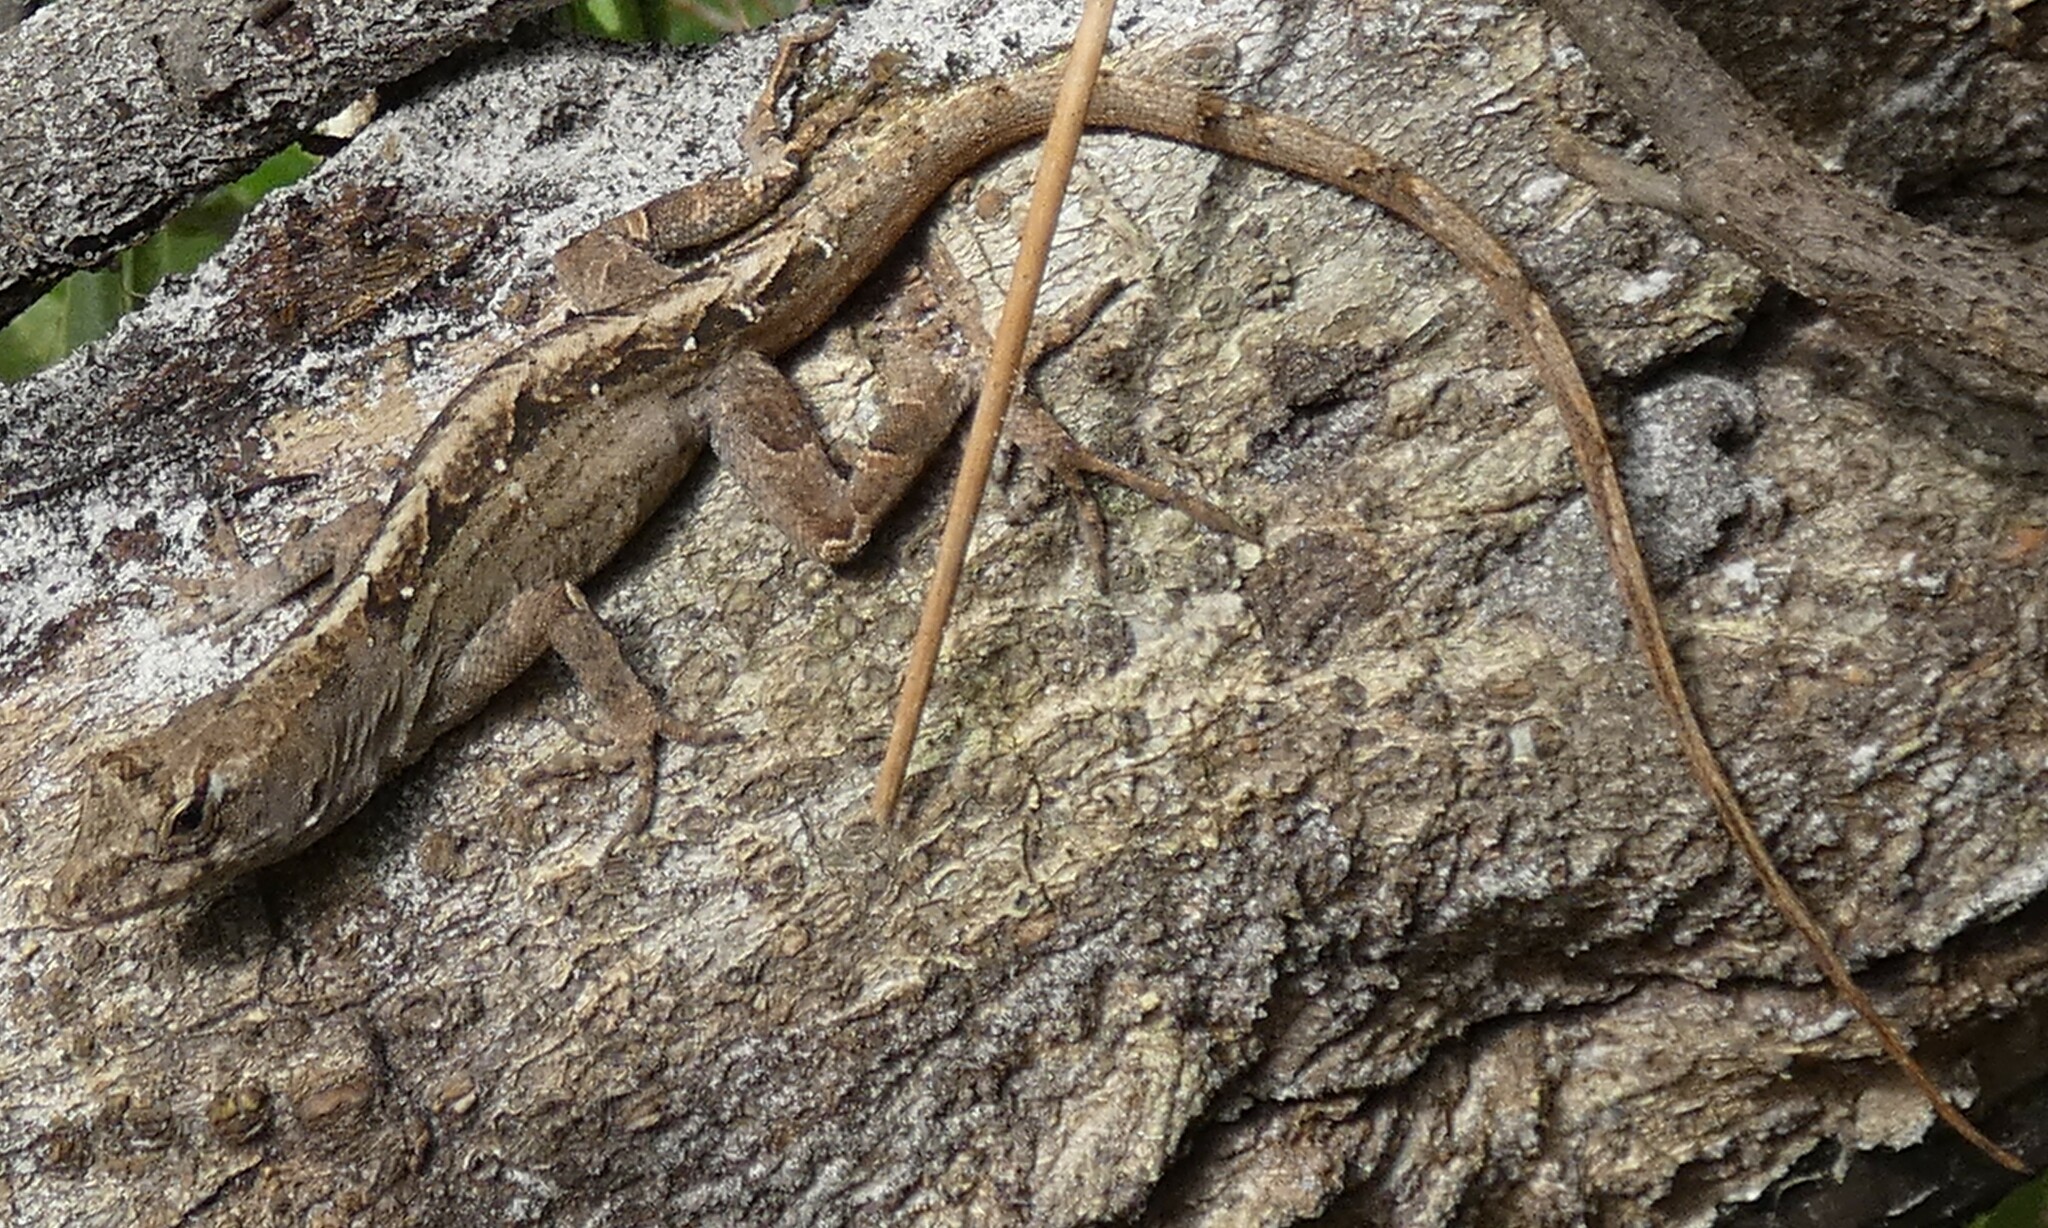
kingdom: Animalia
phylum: Chordata
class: Squamata
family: Dactyloidae
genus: Anolis
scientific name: Anolis sagrei
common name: Brown anole
